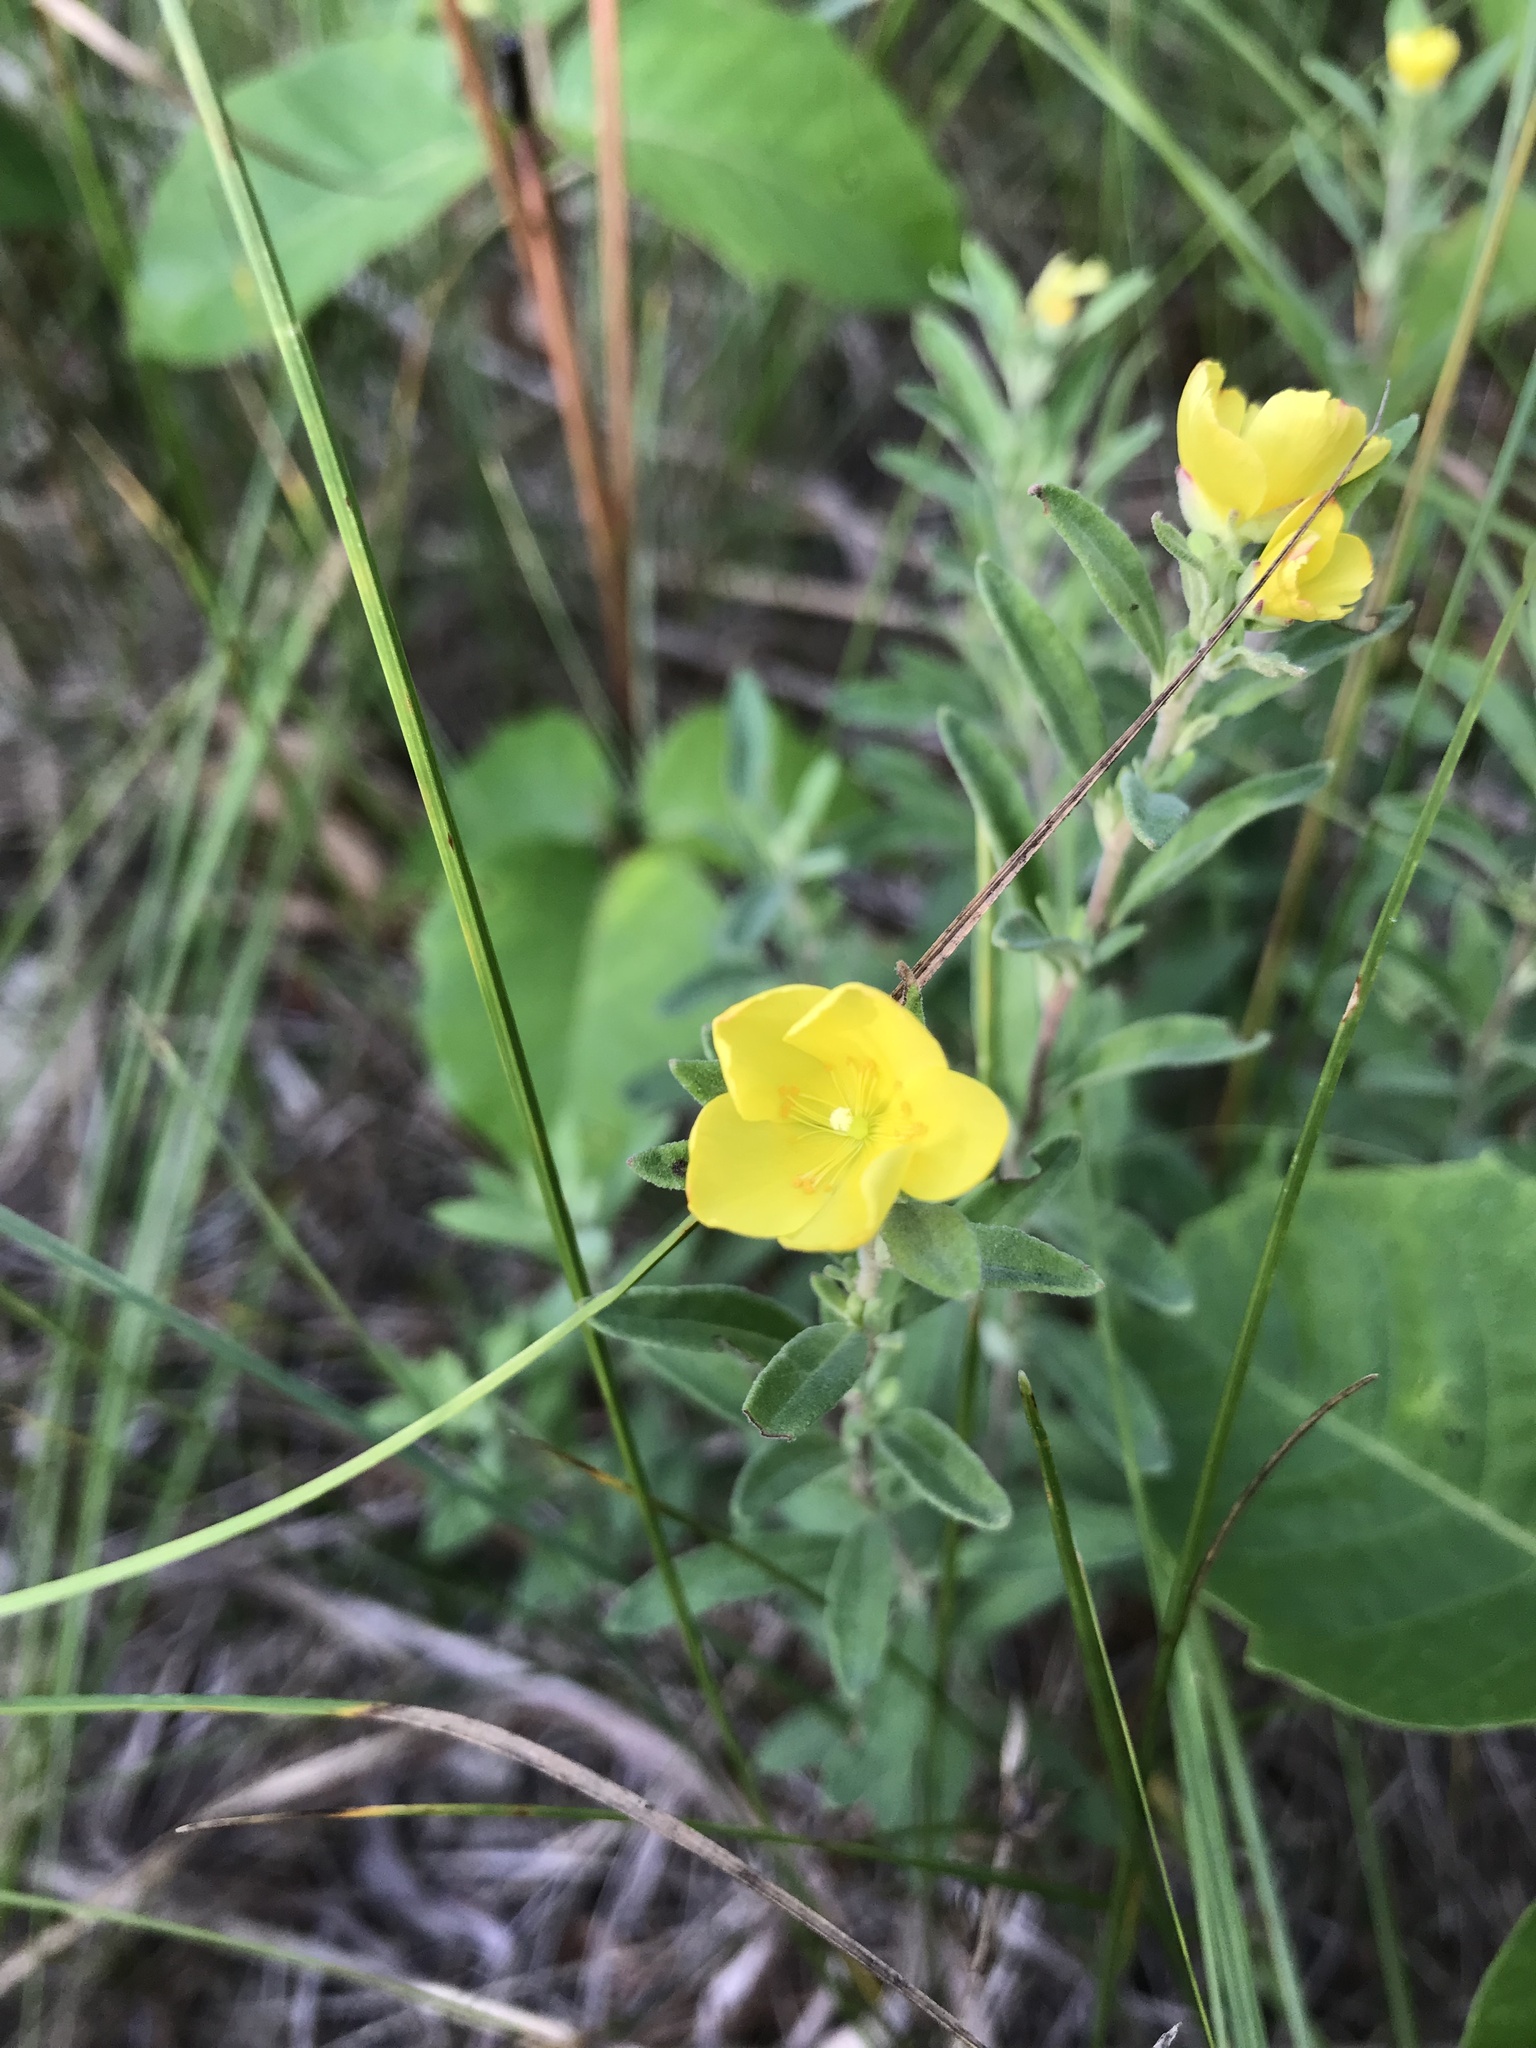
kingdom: Plantae
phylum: Tracheophyta
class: Magnoliopsida
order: Malvales
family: Cistaceae
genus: Crocanthemum
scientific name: Crocanthemum bicknellii
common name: Hoary frostweed
